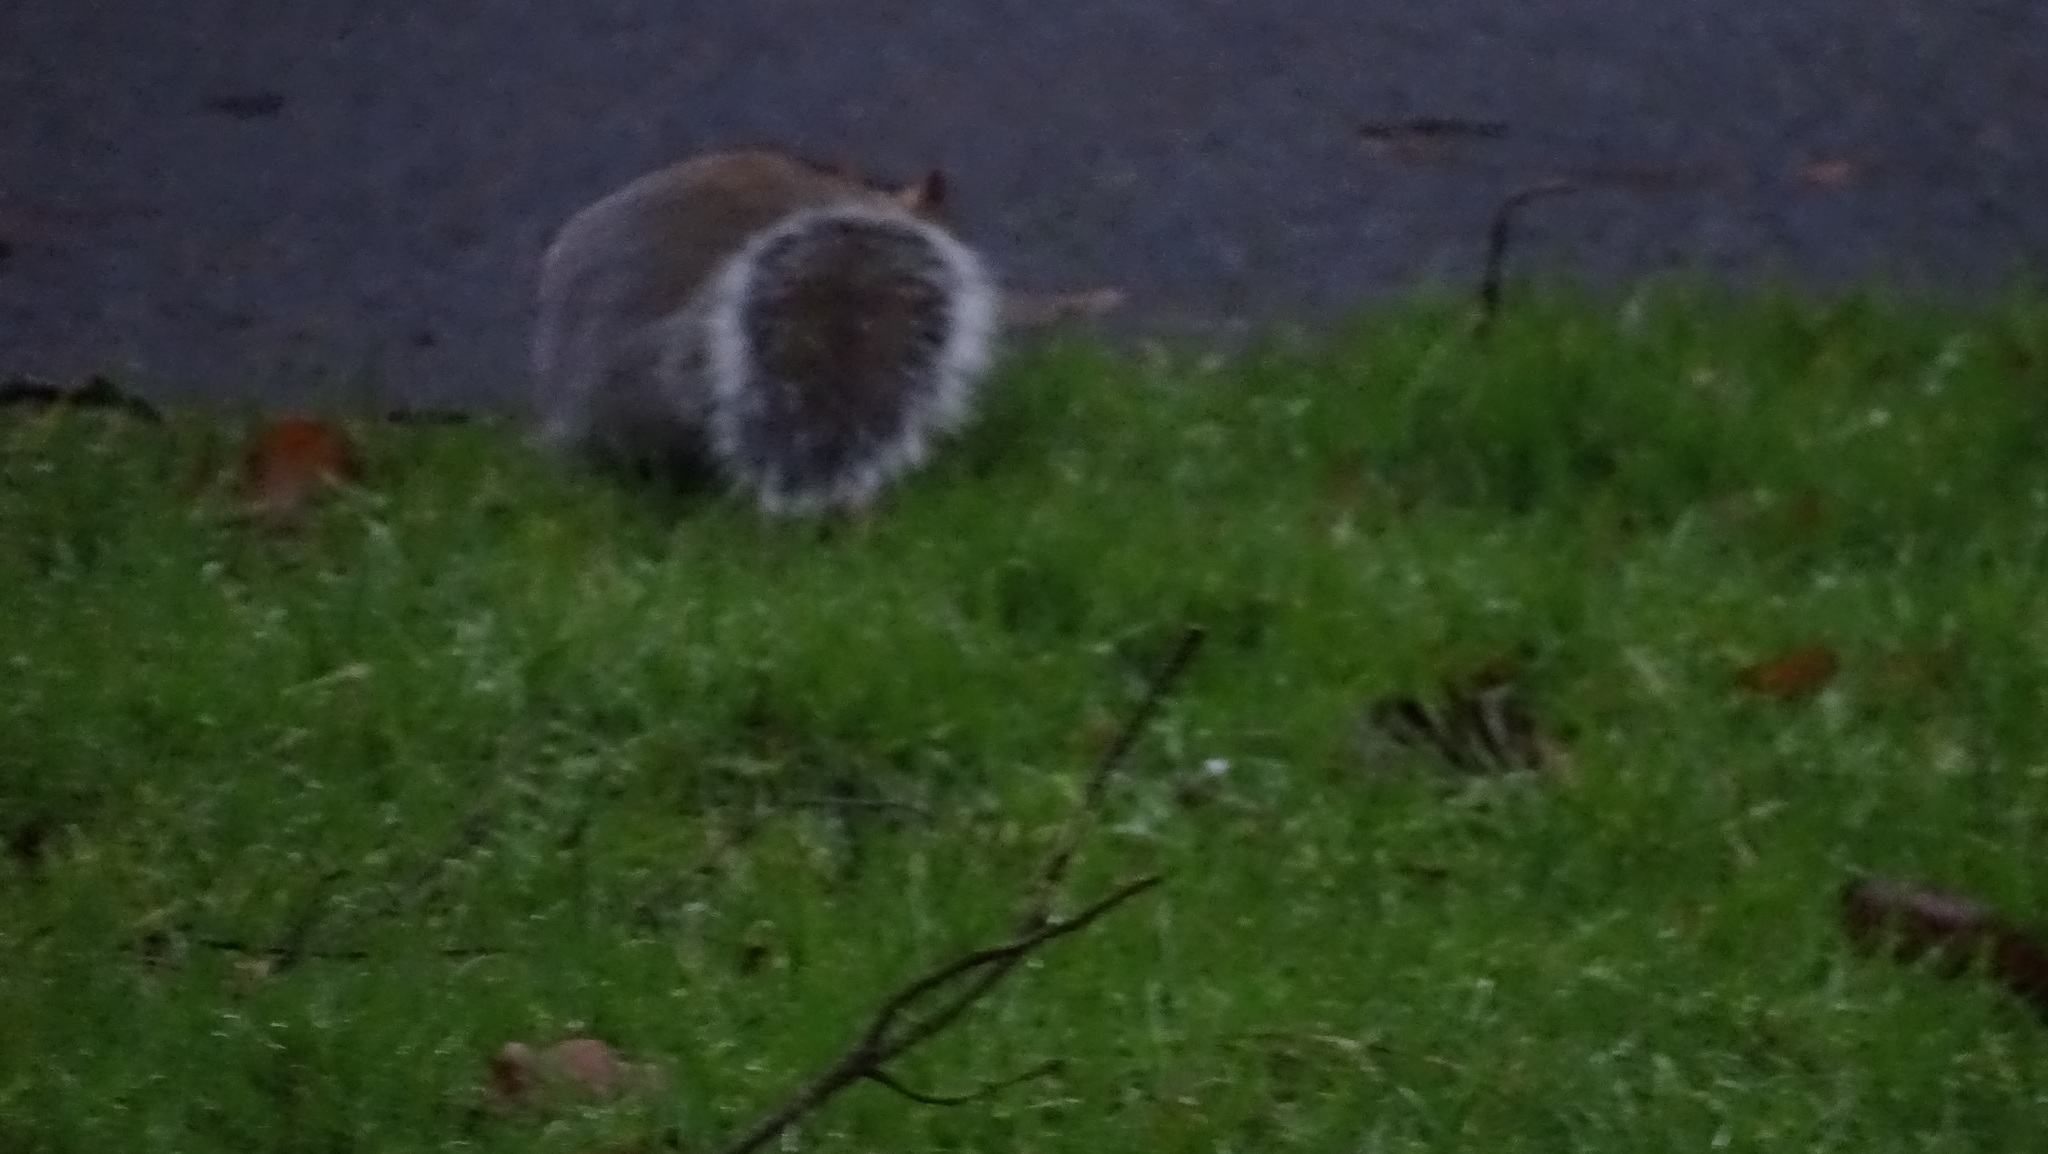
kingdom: Animalia
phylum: Chordata
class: Mammalia
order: Rodentia
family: Sciuridae
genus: Sciurus
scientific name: Sciurus carolinensis
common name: Eastern gray squirrel
